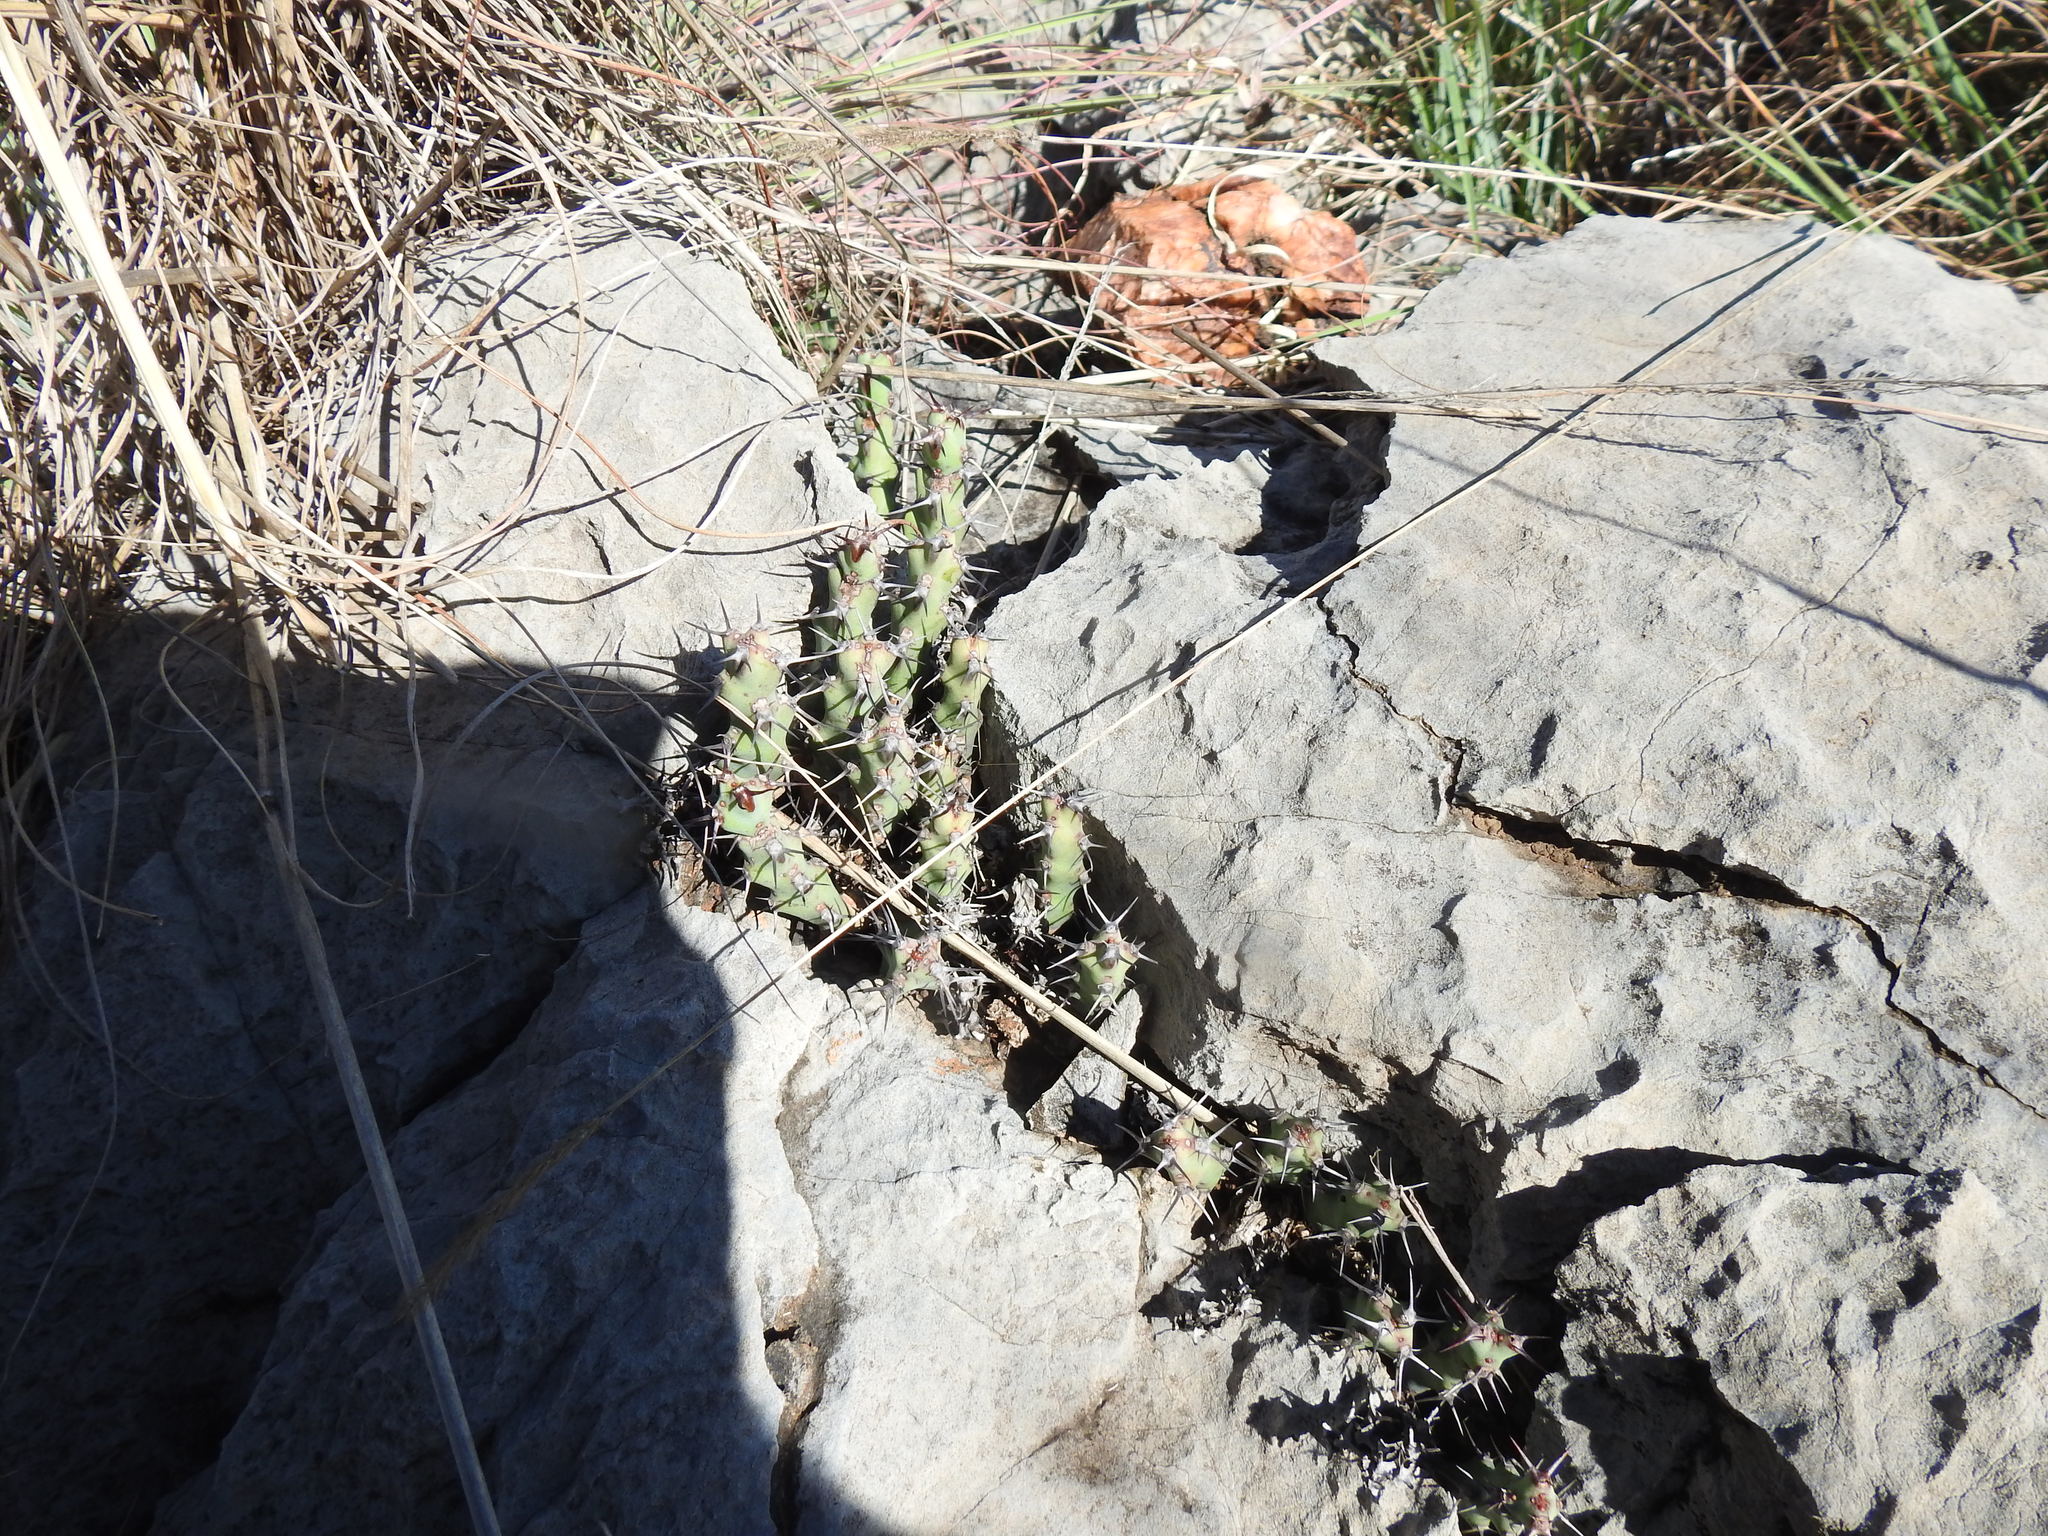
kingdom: Plantae
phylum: Tracheophyta
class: Magnoliopsida
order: Malpighiales
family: Euphorbiaceae
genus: Euphorbia
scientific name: Euphorbia schinzii
